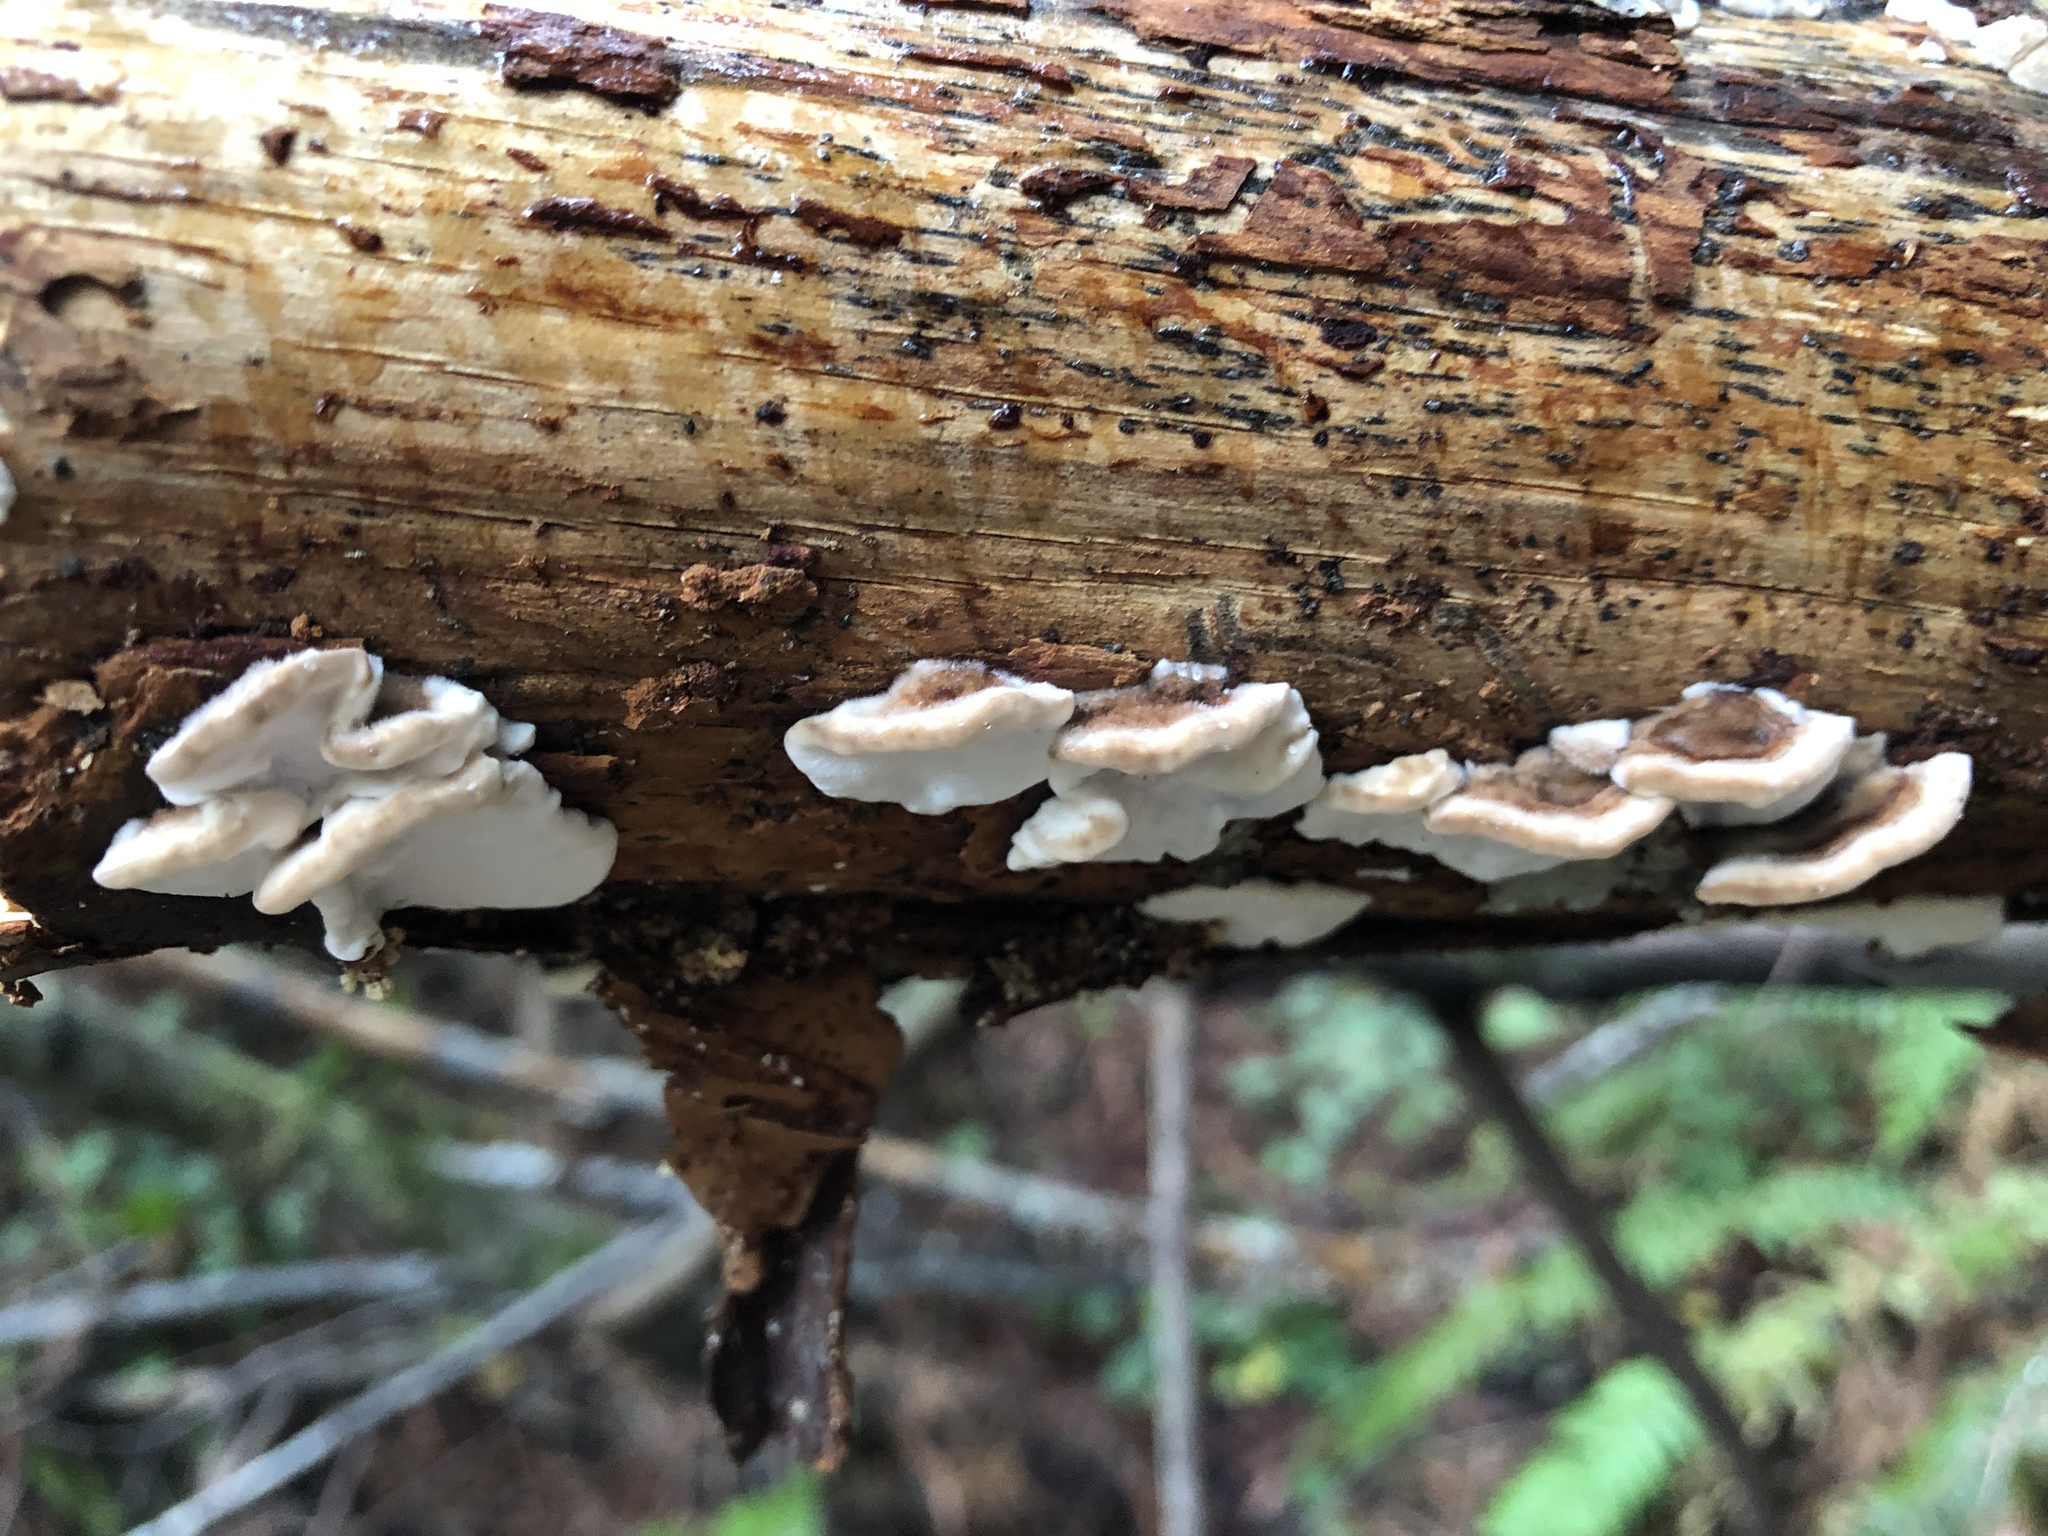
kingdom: Fungi
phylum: Basidiomycota
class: Agaricomycetes
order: Polyporales
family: Polyporaceae
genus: Trametes
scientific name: Trametes versicolor
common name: Turkeytail
